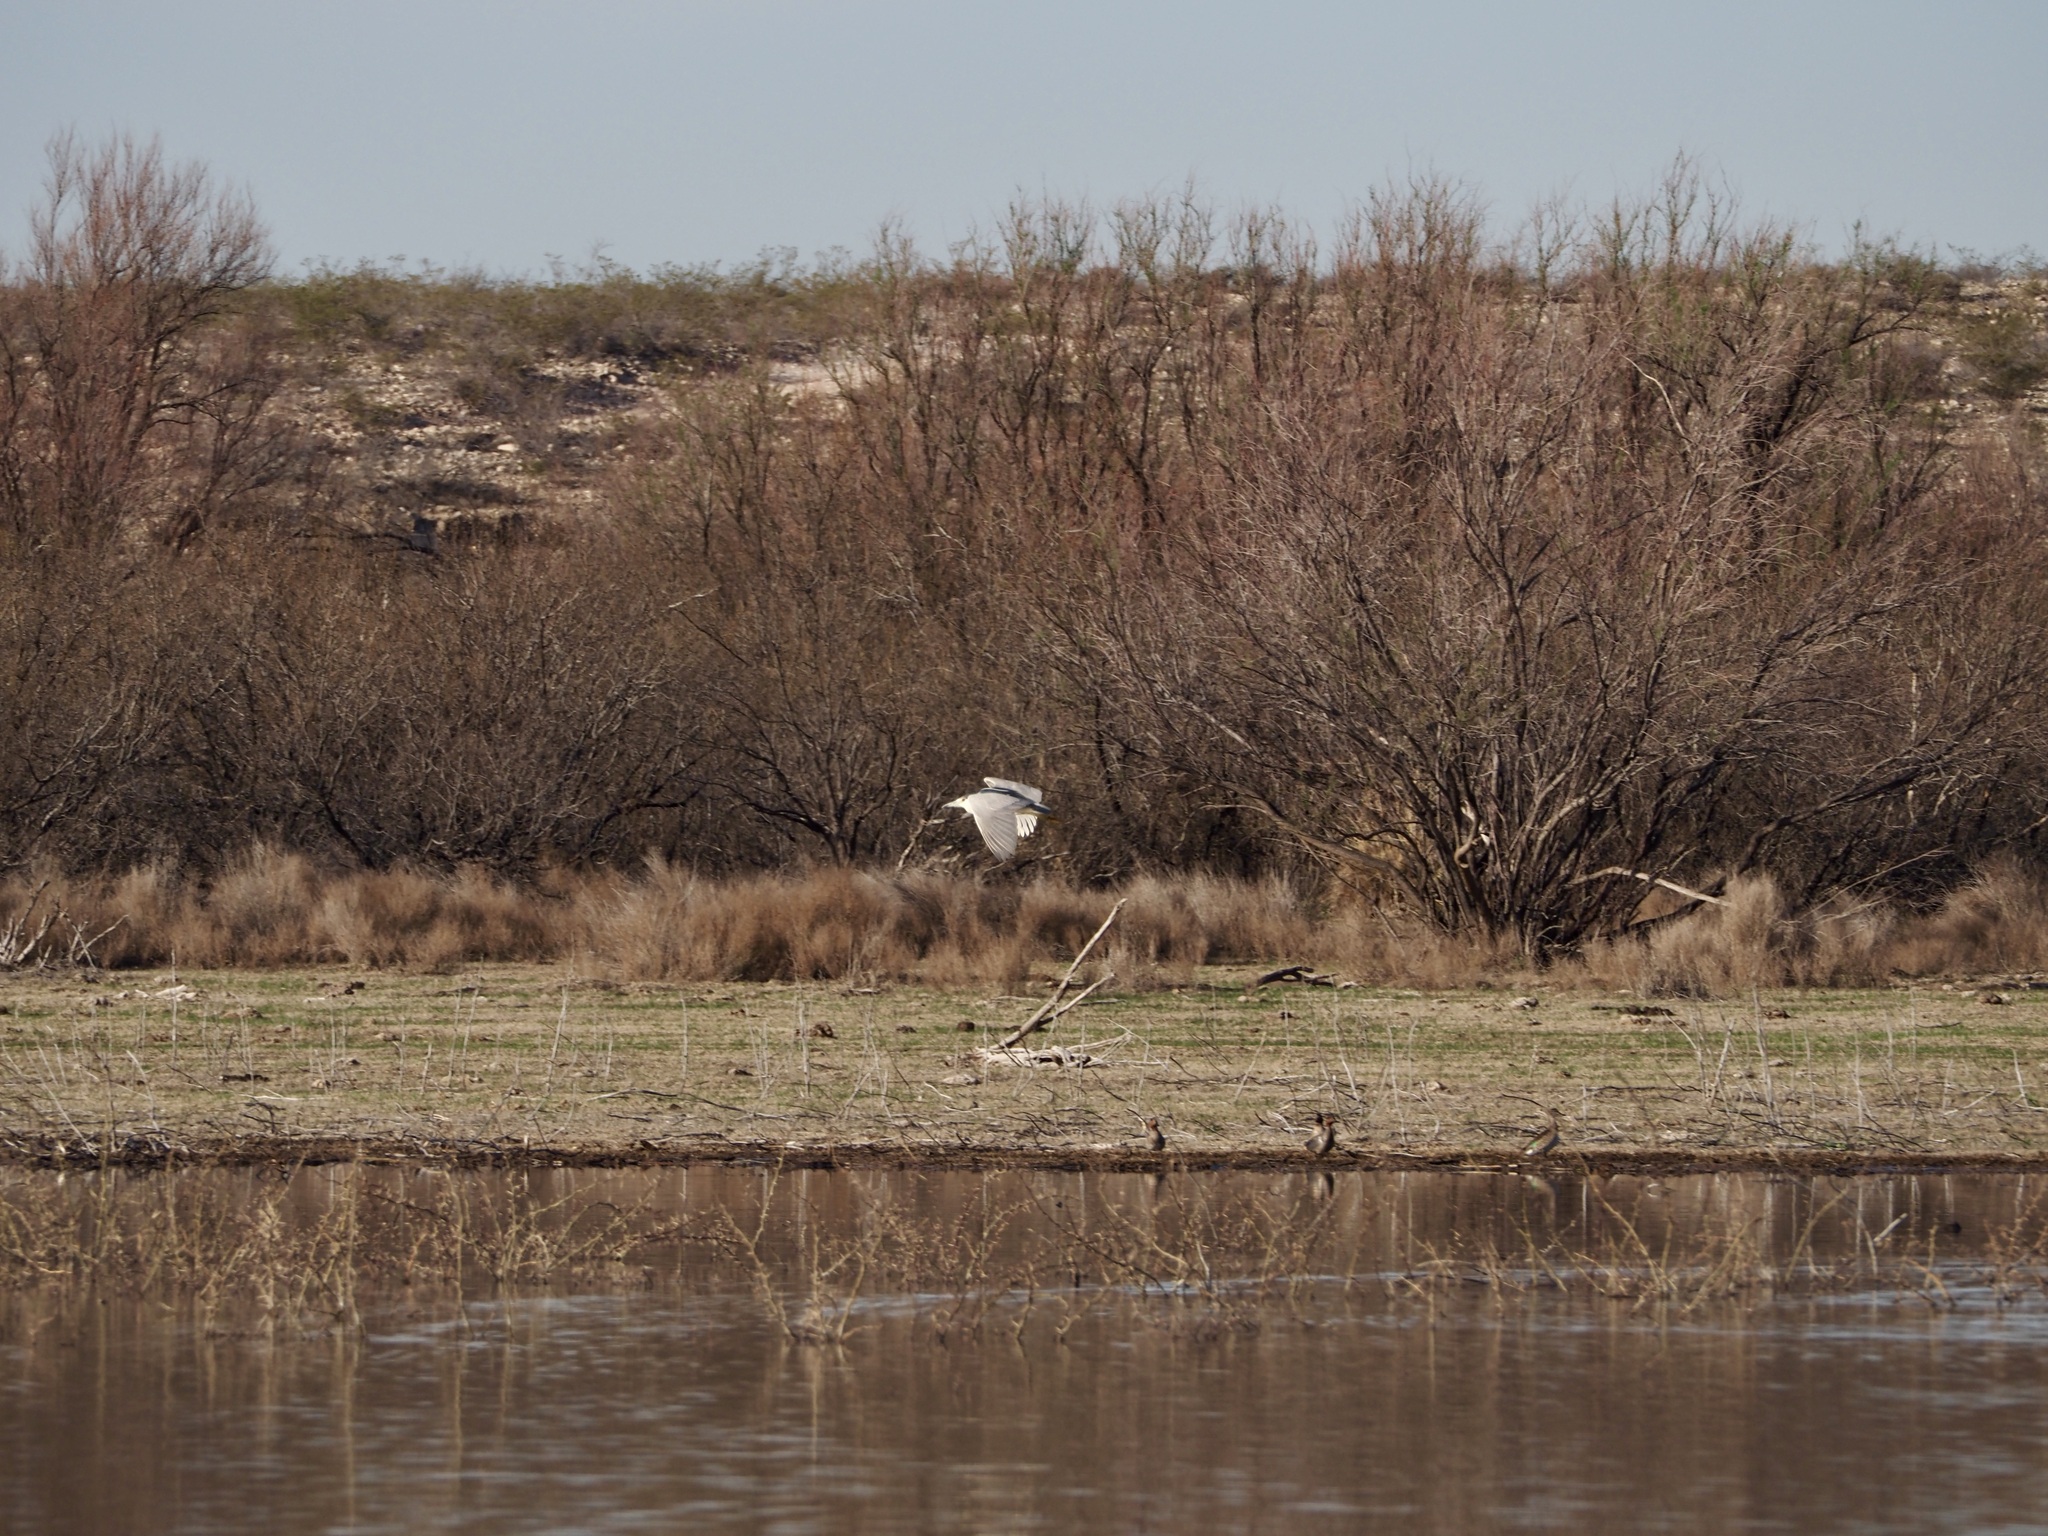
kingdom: Animalia
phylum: Chordata
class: Aves
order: Pelecaniformes
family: Ardeidae
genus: Nycticorax
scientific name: Nycticorax nycticorax
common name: Black-crowned night heron
